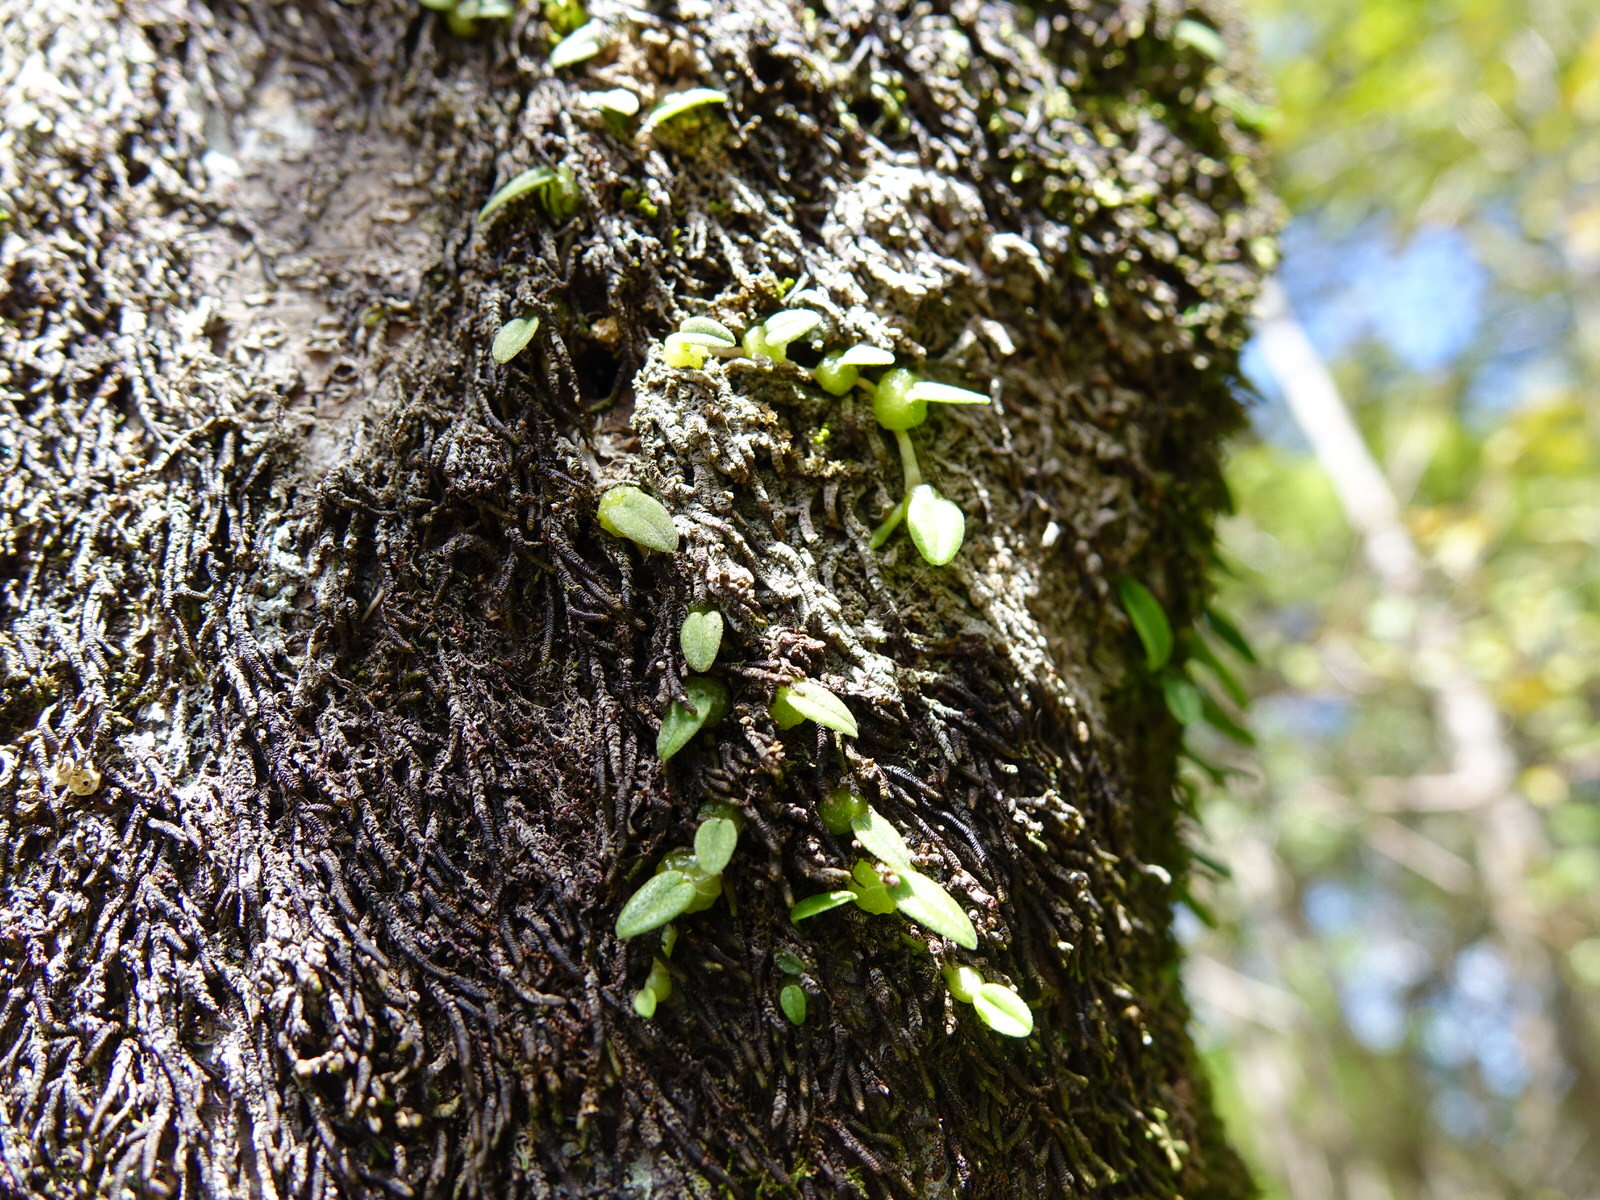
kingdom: Plantae
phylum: Tracheophyta
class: Liliopsida
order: Asparagales
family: Orchidaceae
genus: Bulbophyllum
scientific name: Bulbophyllum pygmaeum
